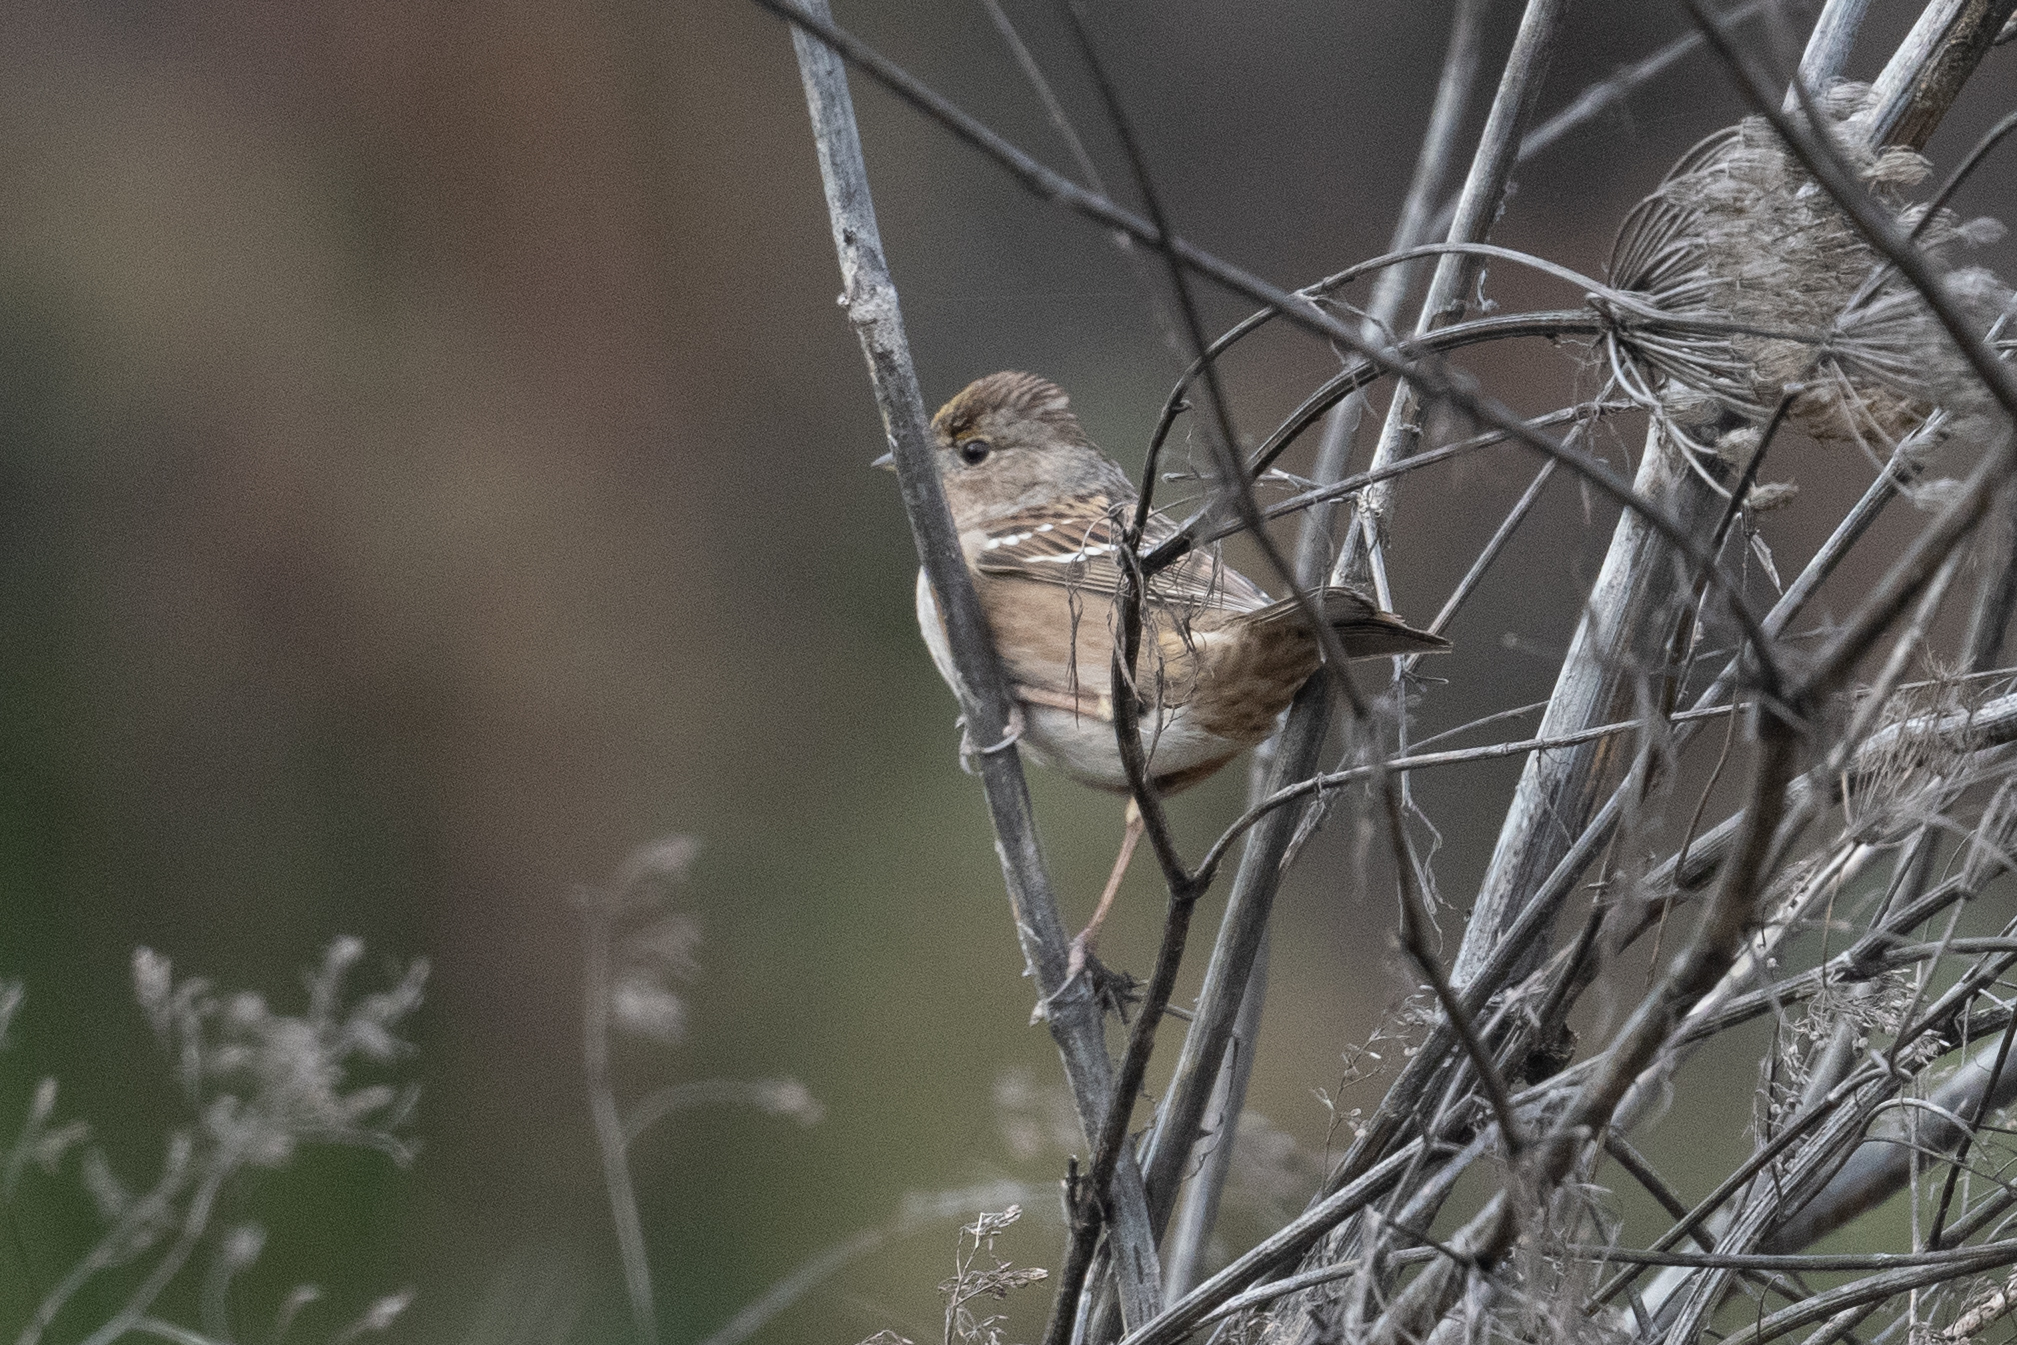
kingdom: Animalia
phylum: Chordata
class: Aves
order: Passeriformes
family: Passerellidae
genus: Zonotrichia
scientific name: Zonotrichia atricapilla
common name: Golden-crowned sparrow
